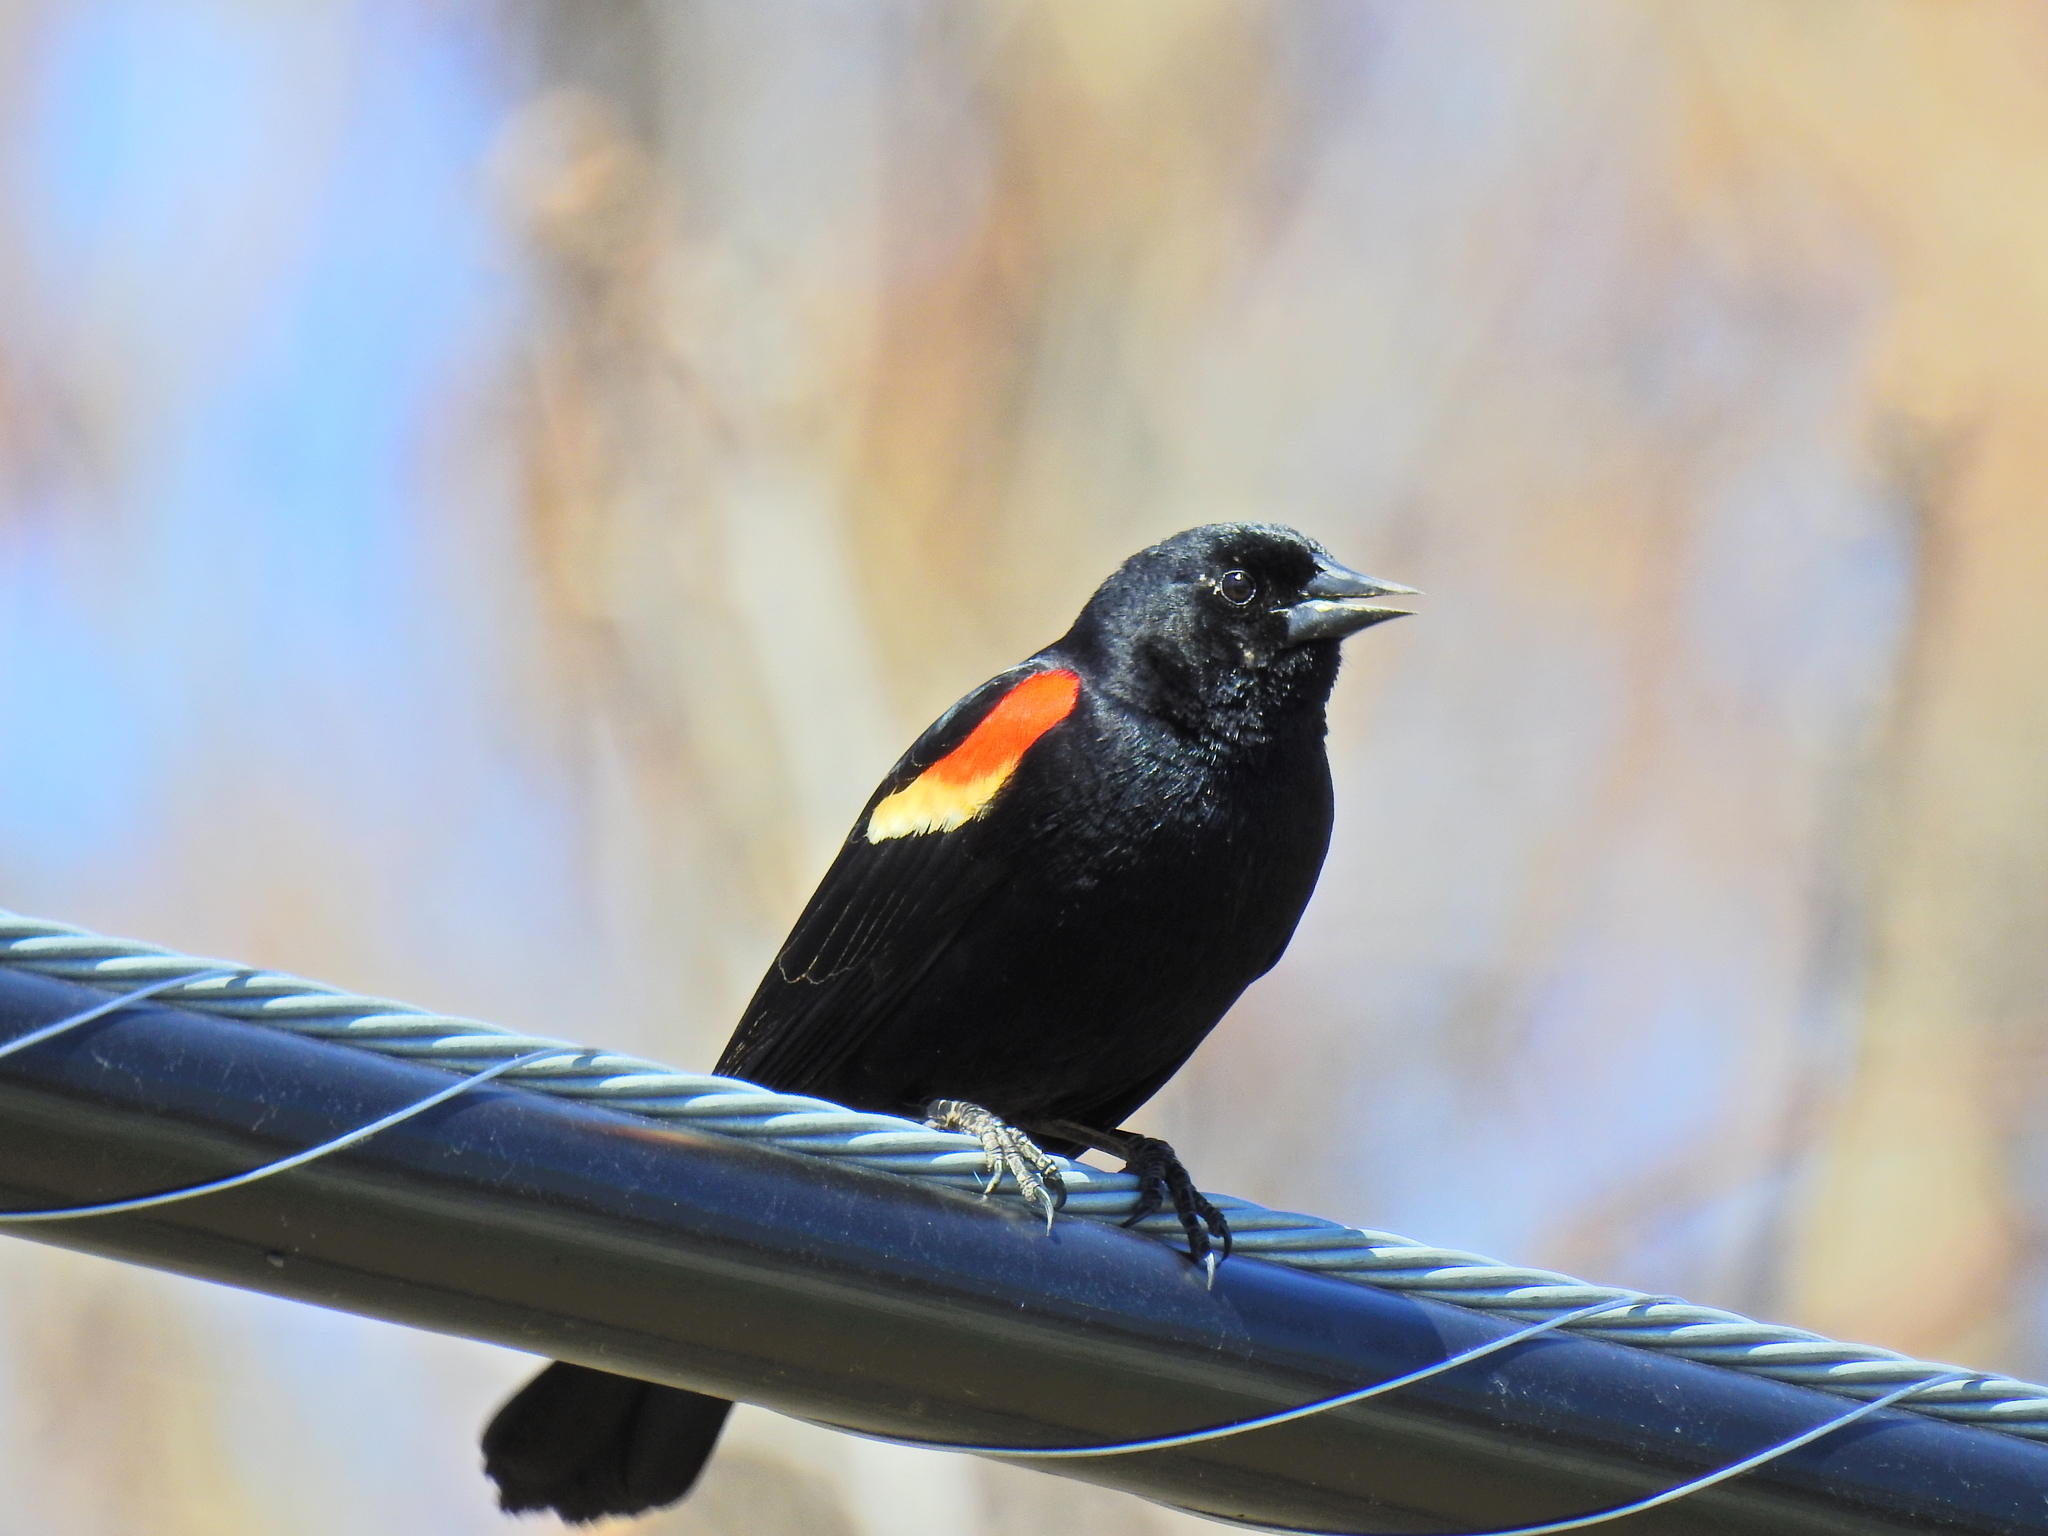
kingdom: Animalia
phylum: Chordata
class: Aves
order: Passeriformes
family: Icteridae
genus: Agelaius
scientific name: Agelaius phoeniceus
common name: Red-winged blackbird
